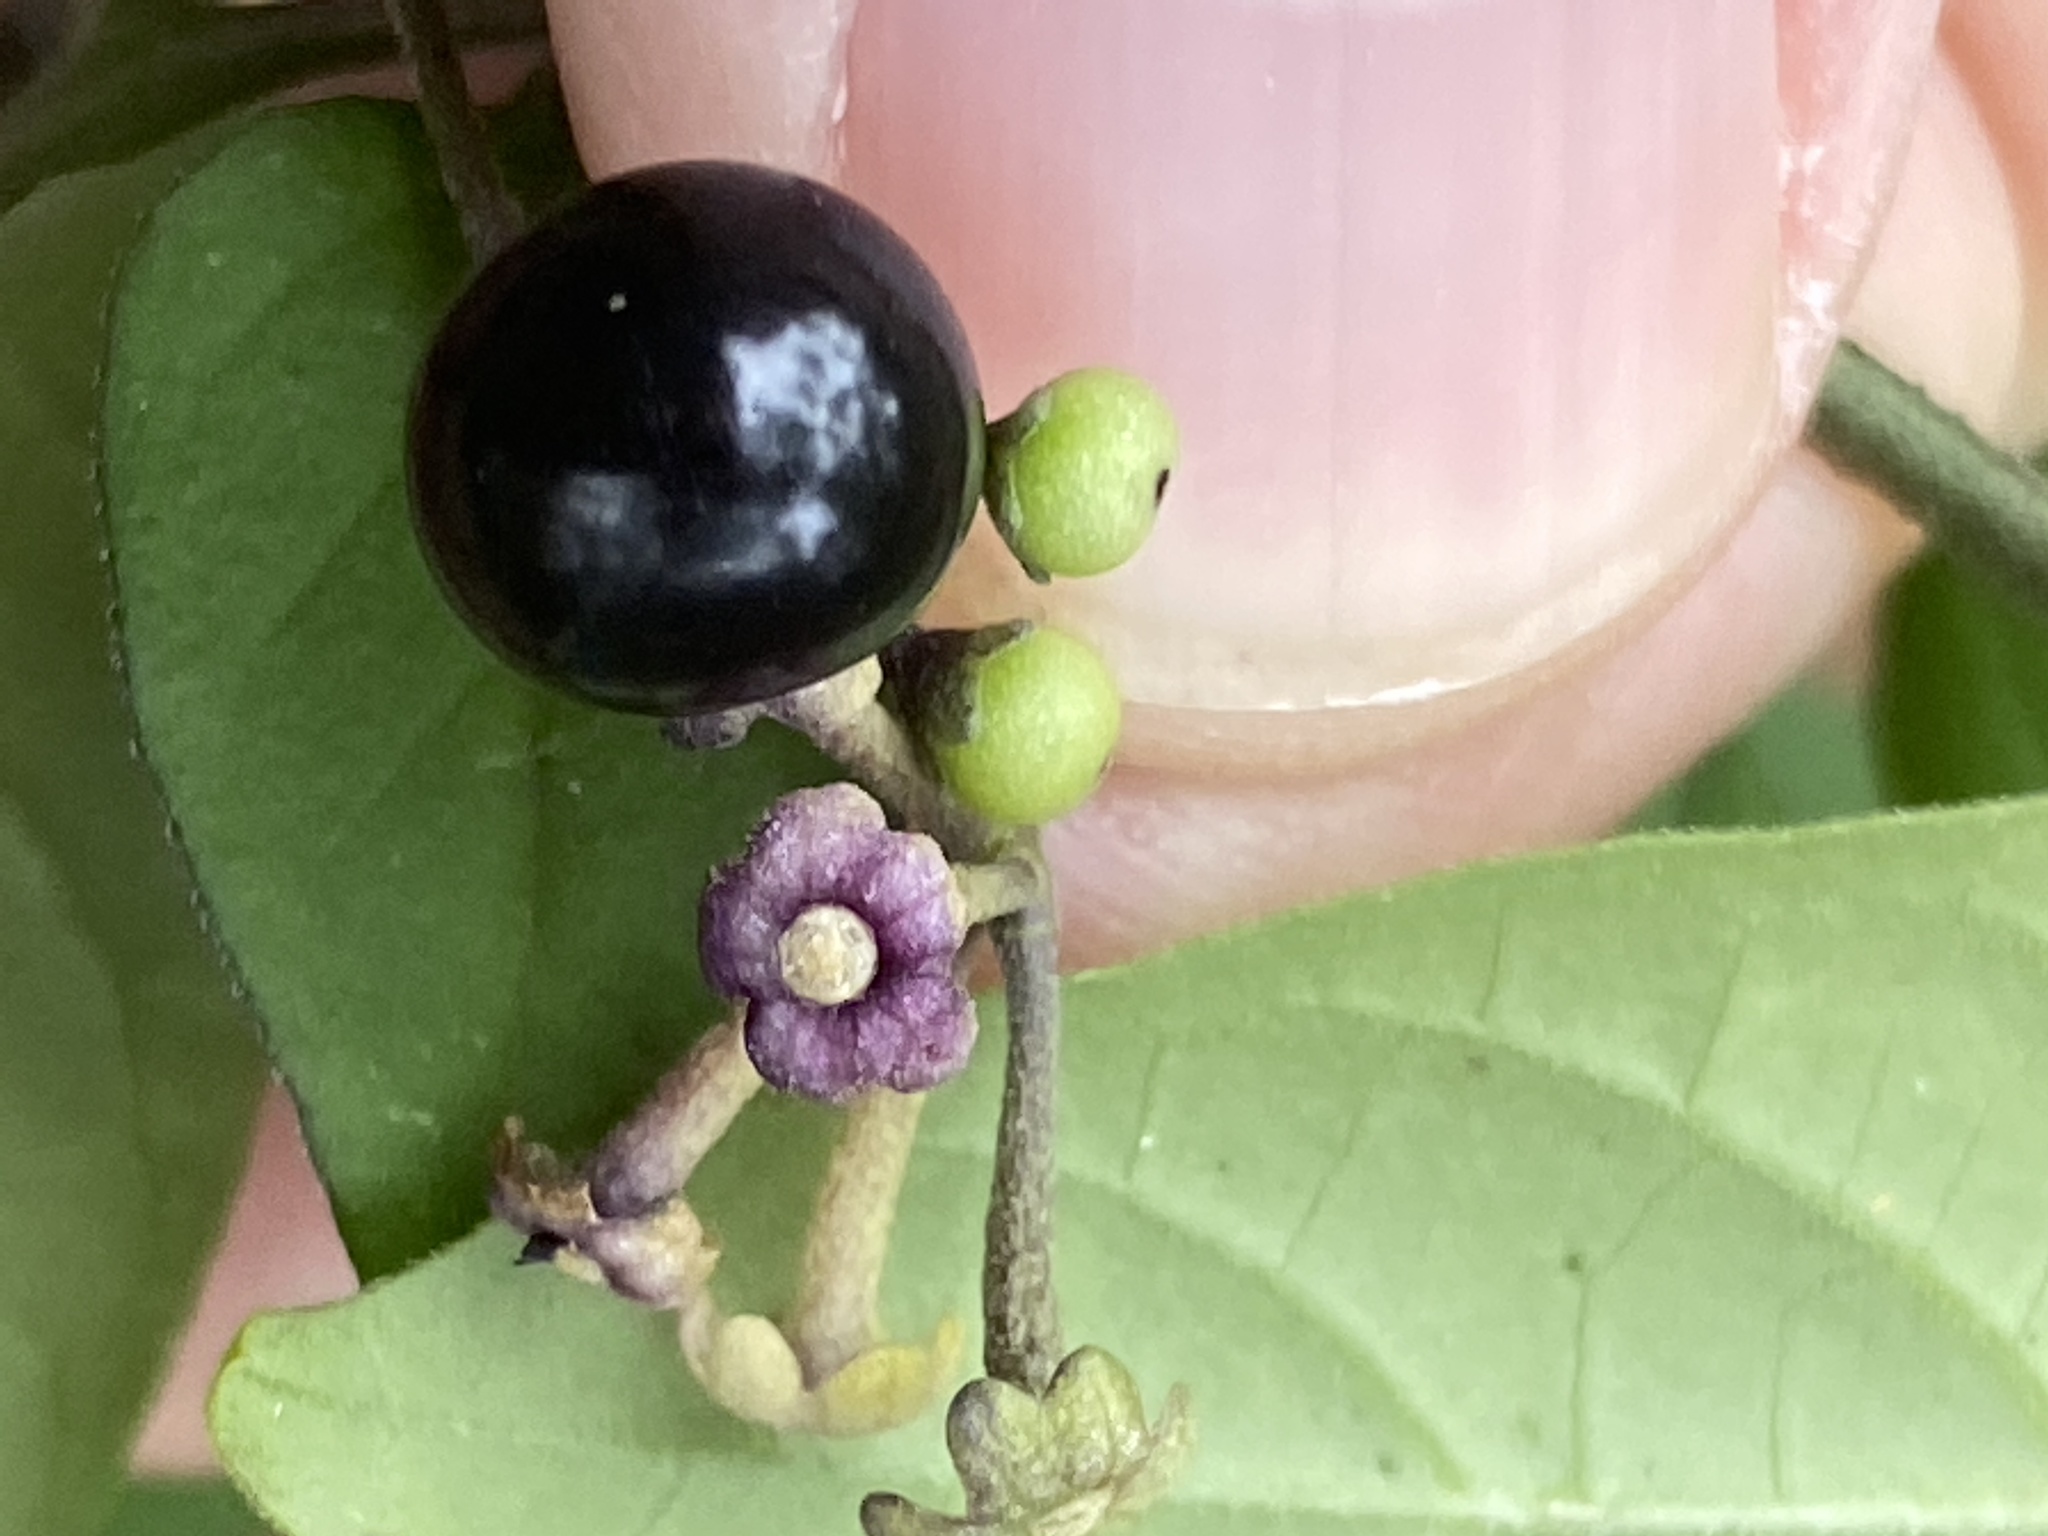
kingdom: Plantae
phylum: Tracheophyta
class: Magnoliopsida
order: Solanales
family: Solanaceae
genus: Solanum
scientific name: Solanum pseudogracile
